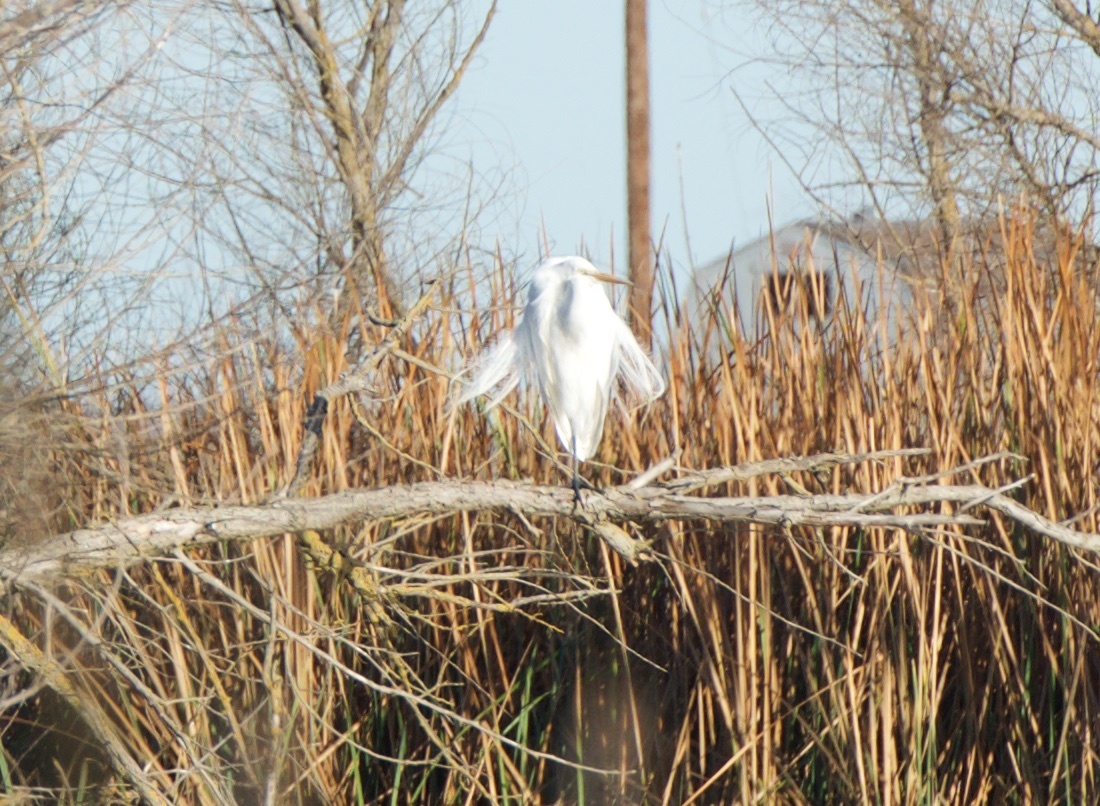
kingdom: Animalia
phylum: Chordata
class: Aves
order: Pelecaniformes
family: Ardeidae
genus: Ardea
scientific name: Ardea alba
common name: Great egret
